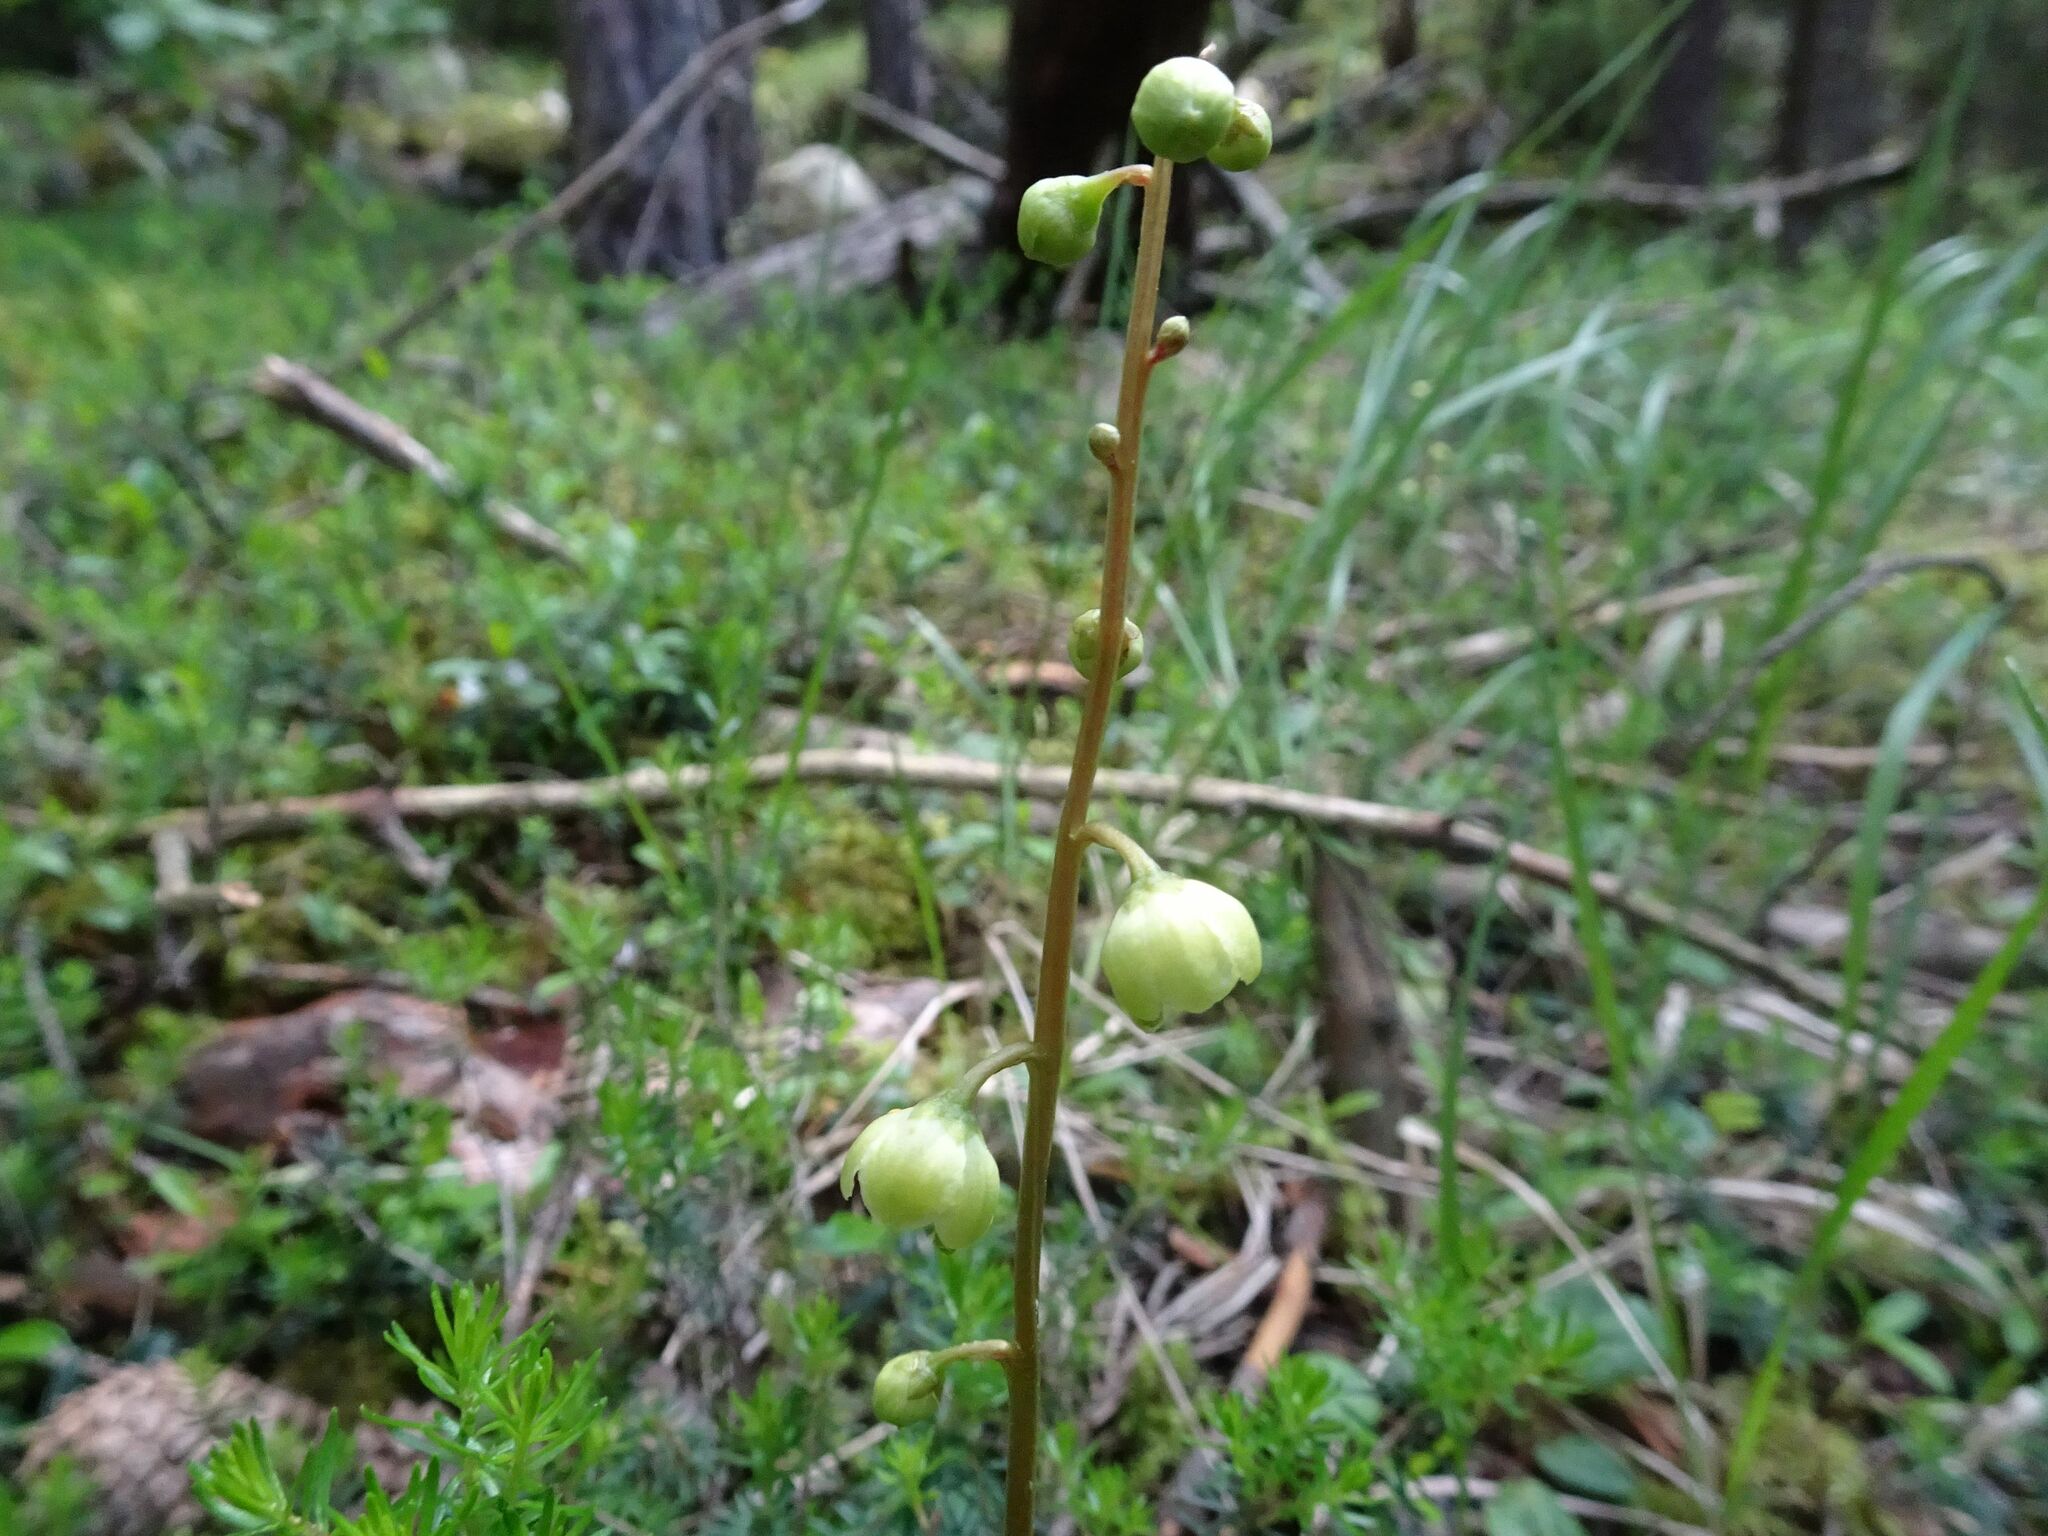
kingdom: Plantae
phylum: Tracheophyta
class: Magnoliopsida
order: Ericales
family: Ericaceae
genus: Pyrola
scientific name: Pyrola chlorantha
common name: Green wintergreen
